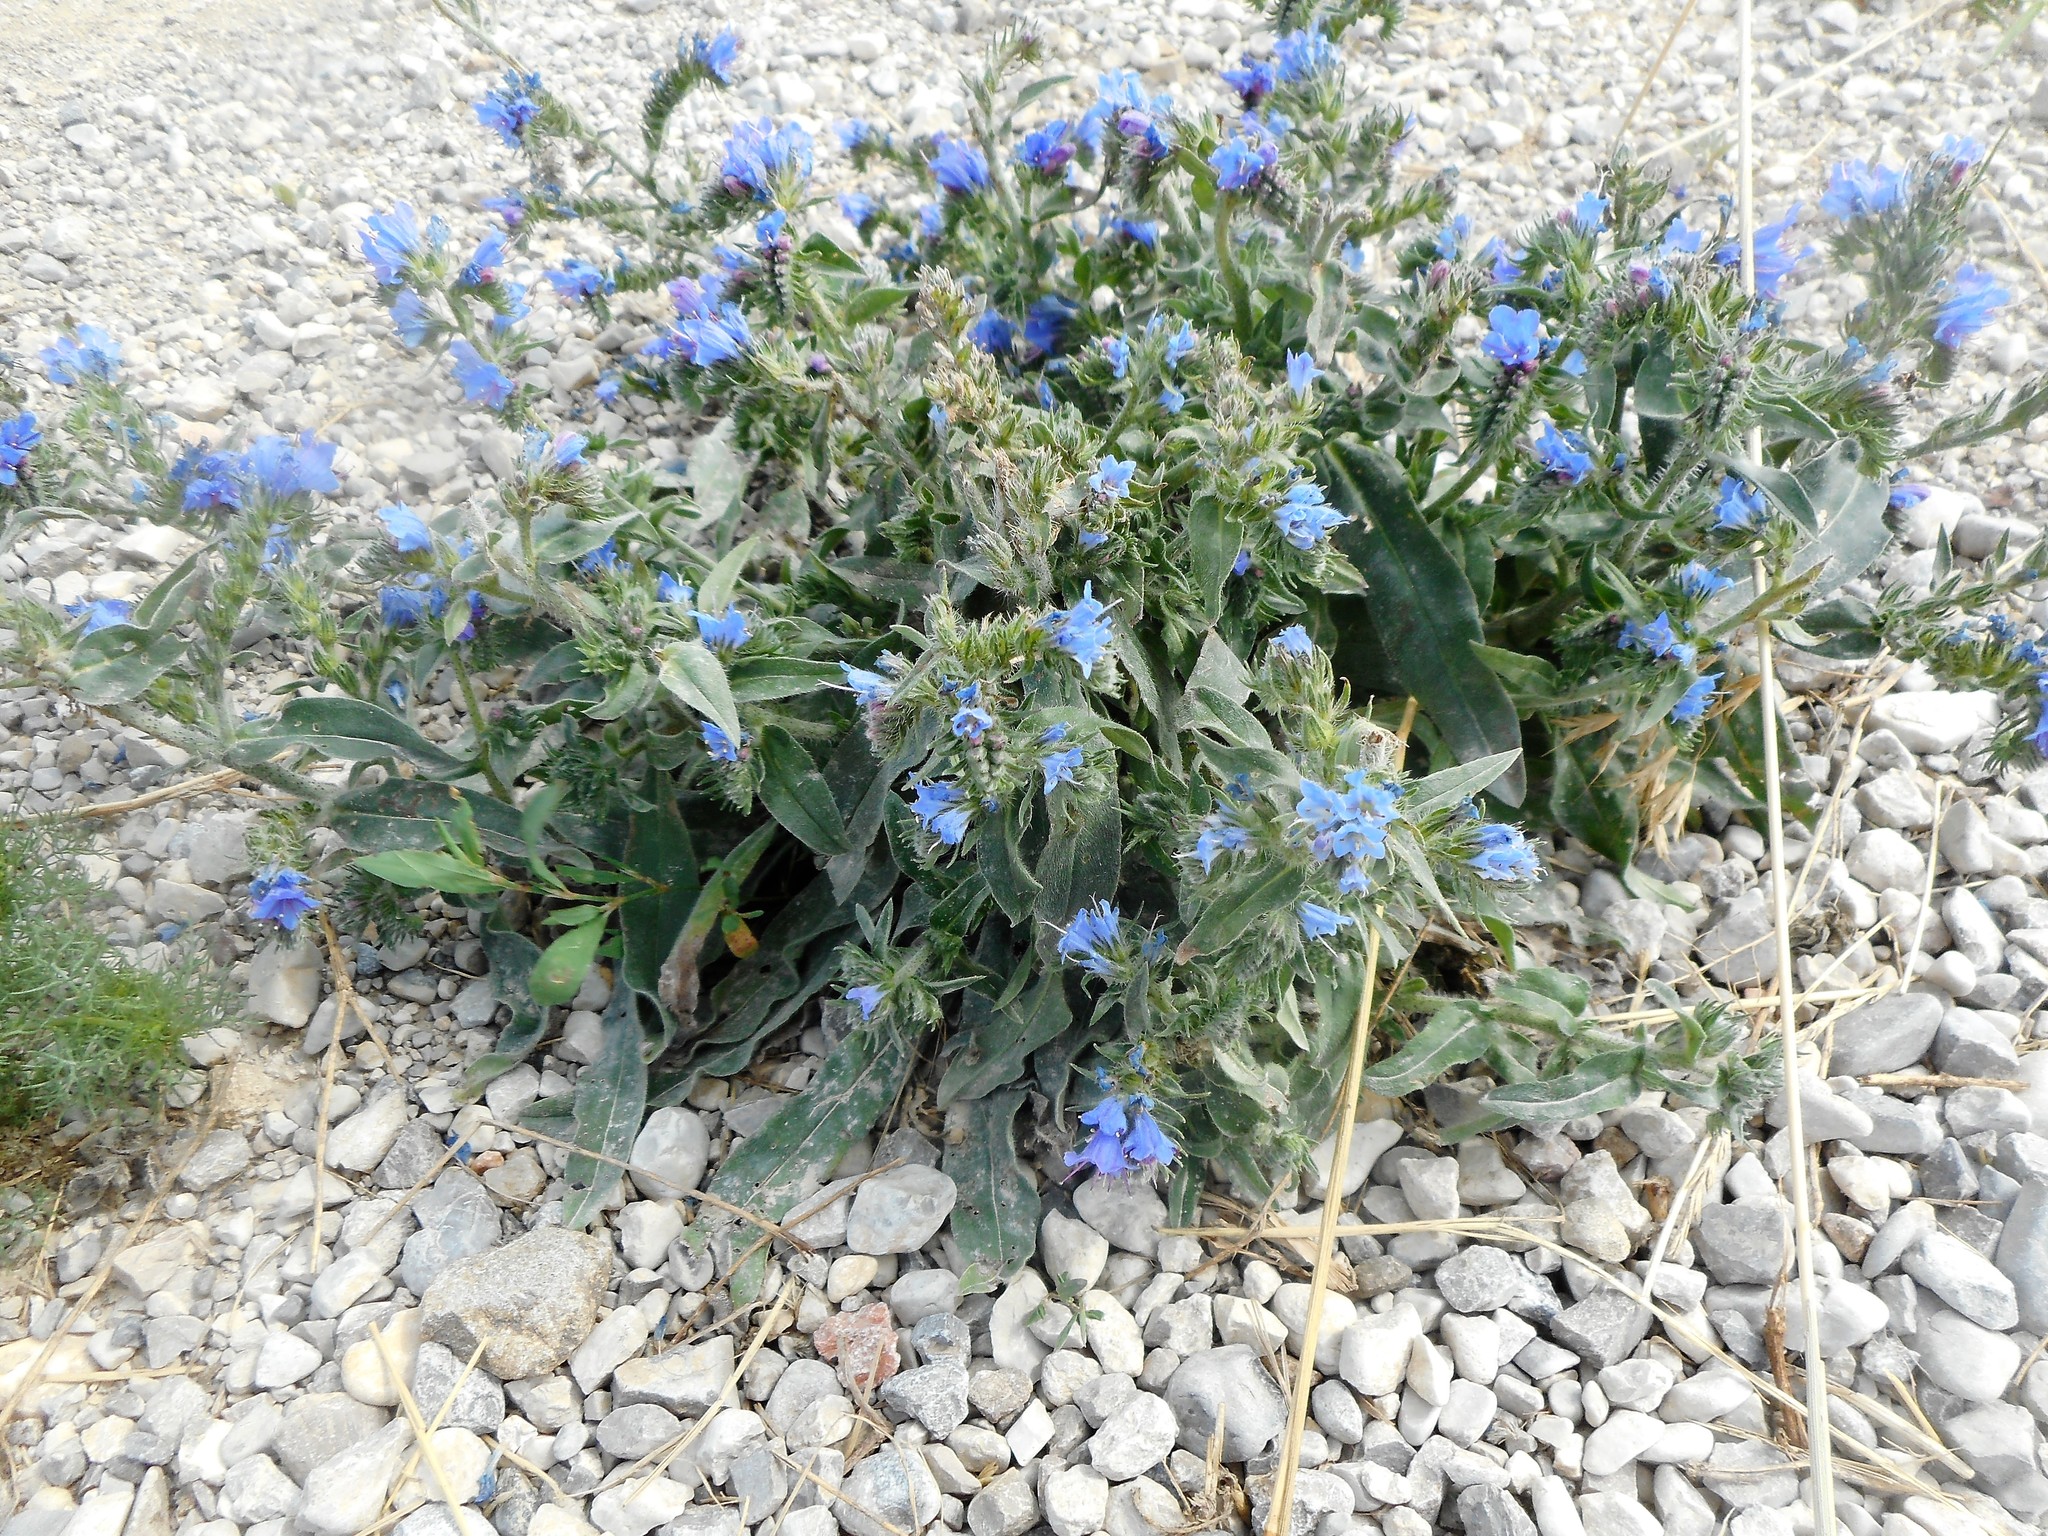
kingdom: Plantae
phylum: Tracheophyta
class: Magnoliopsida
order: Boraginales
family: Boraginaceae
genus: Echium
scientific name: Echium vulgare
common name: Common viper's bugloss
